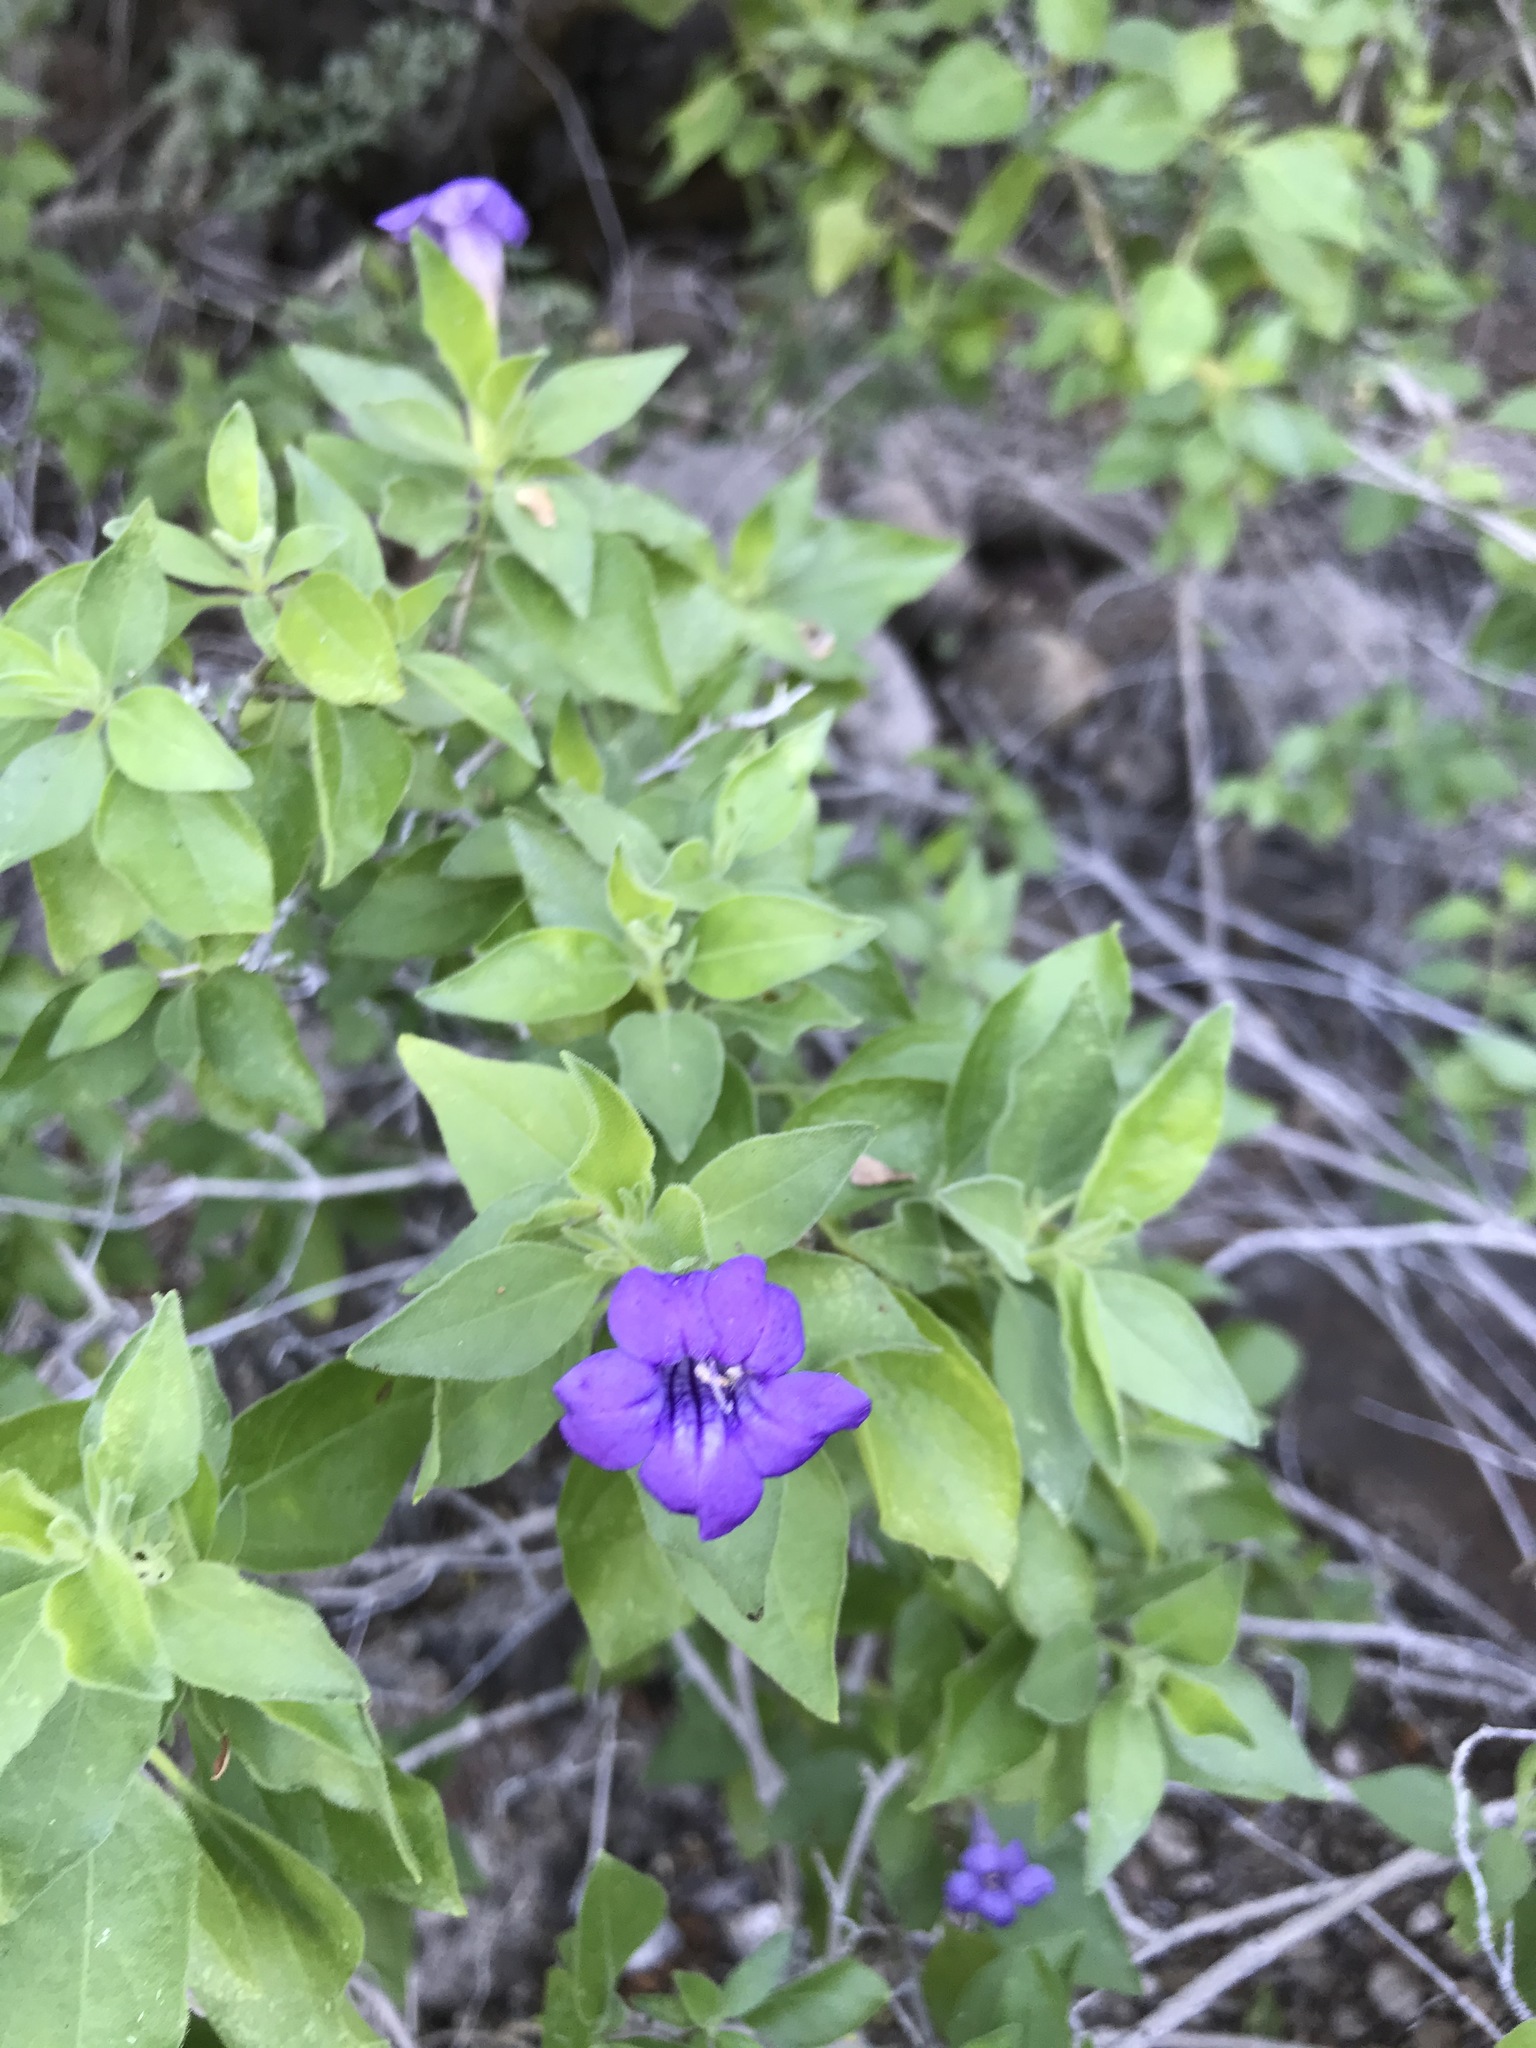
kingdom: Plantae
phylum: Tracheophyta
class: Magnoliopsida
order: Lamiales
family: Acanthaceae
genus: Ruellia
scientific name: Ruellia californica
